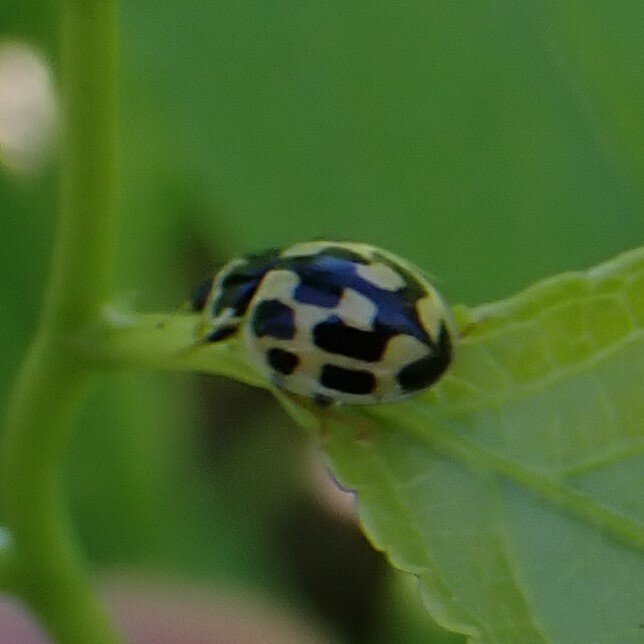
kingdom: Animalia
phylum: Arthropoda
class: Insecta
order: Coleoptera
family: Coccinellidae
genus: Propylaea
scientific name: Propylaea quatuordecimpunctata
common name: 14-spotted ladybird beetle
